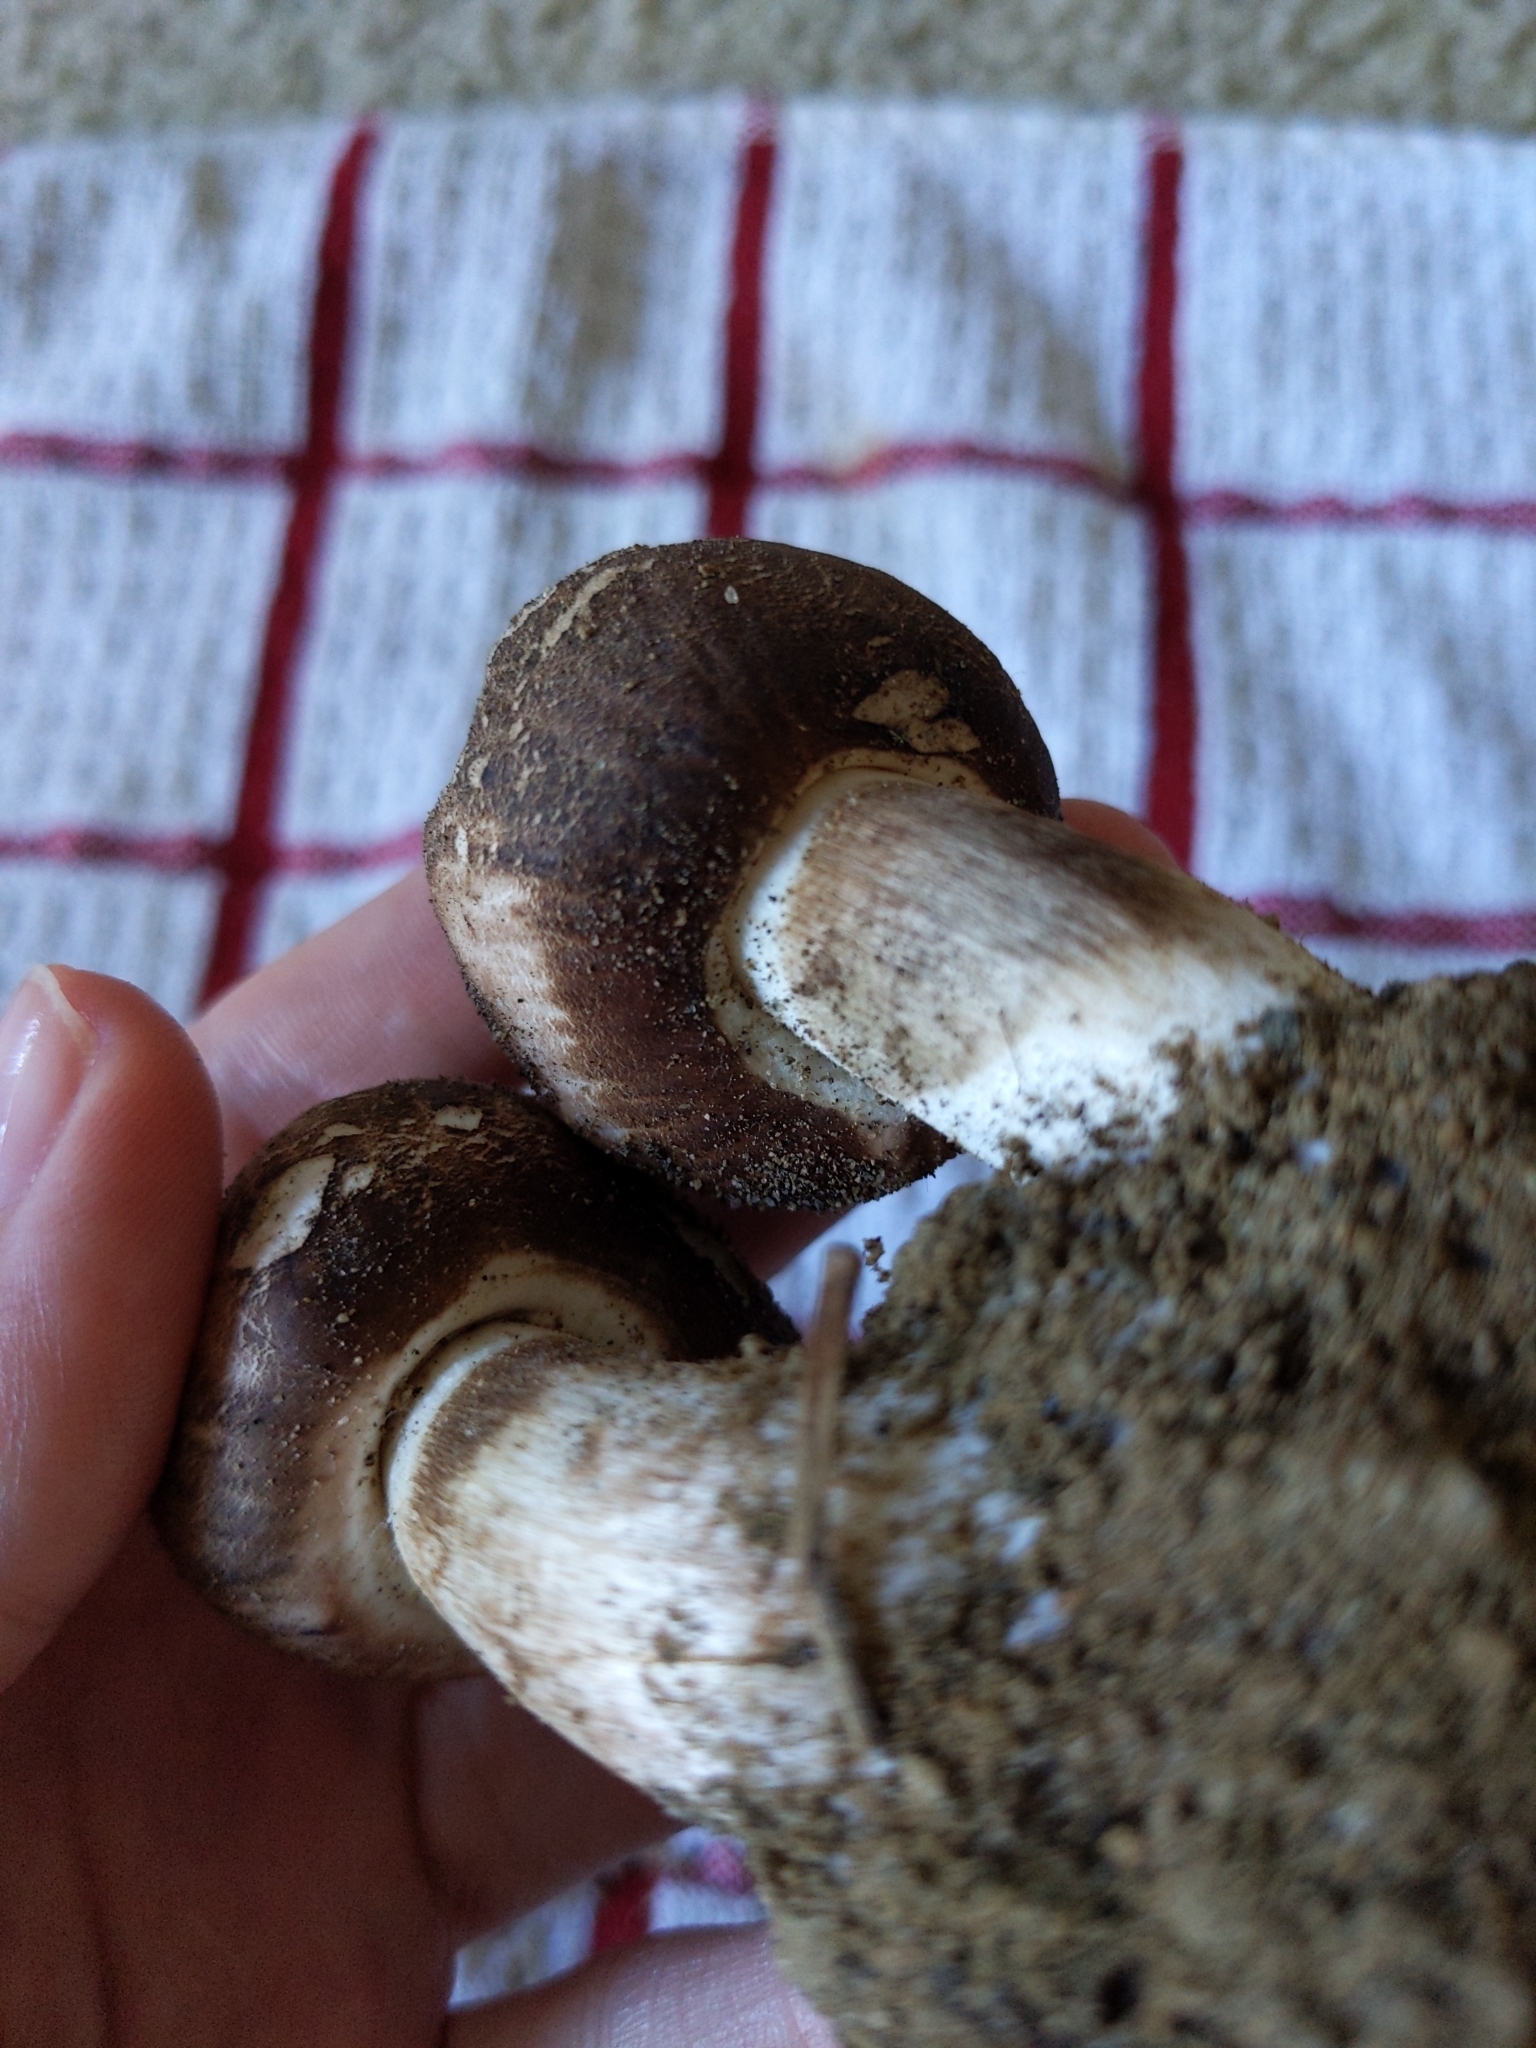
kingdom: Fungi
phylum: Basidiomycota
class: Agaricomycetes
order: Agaricales
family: Agaricaceae
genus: Chlorophyllum
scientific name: Chlorophyllum brunneum
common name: Brown parasol
